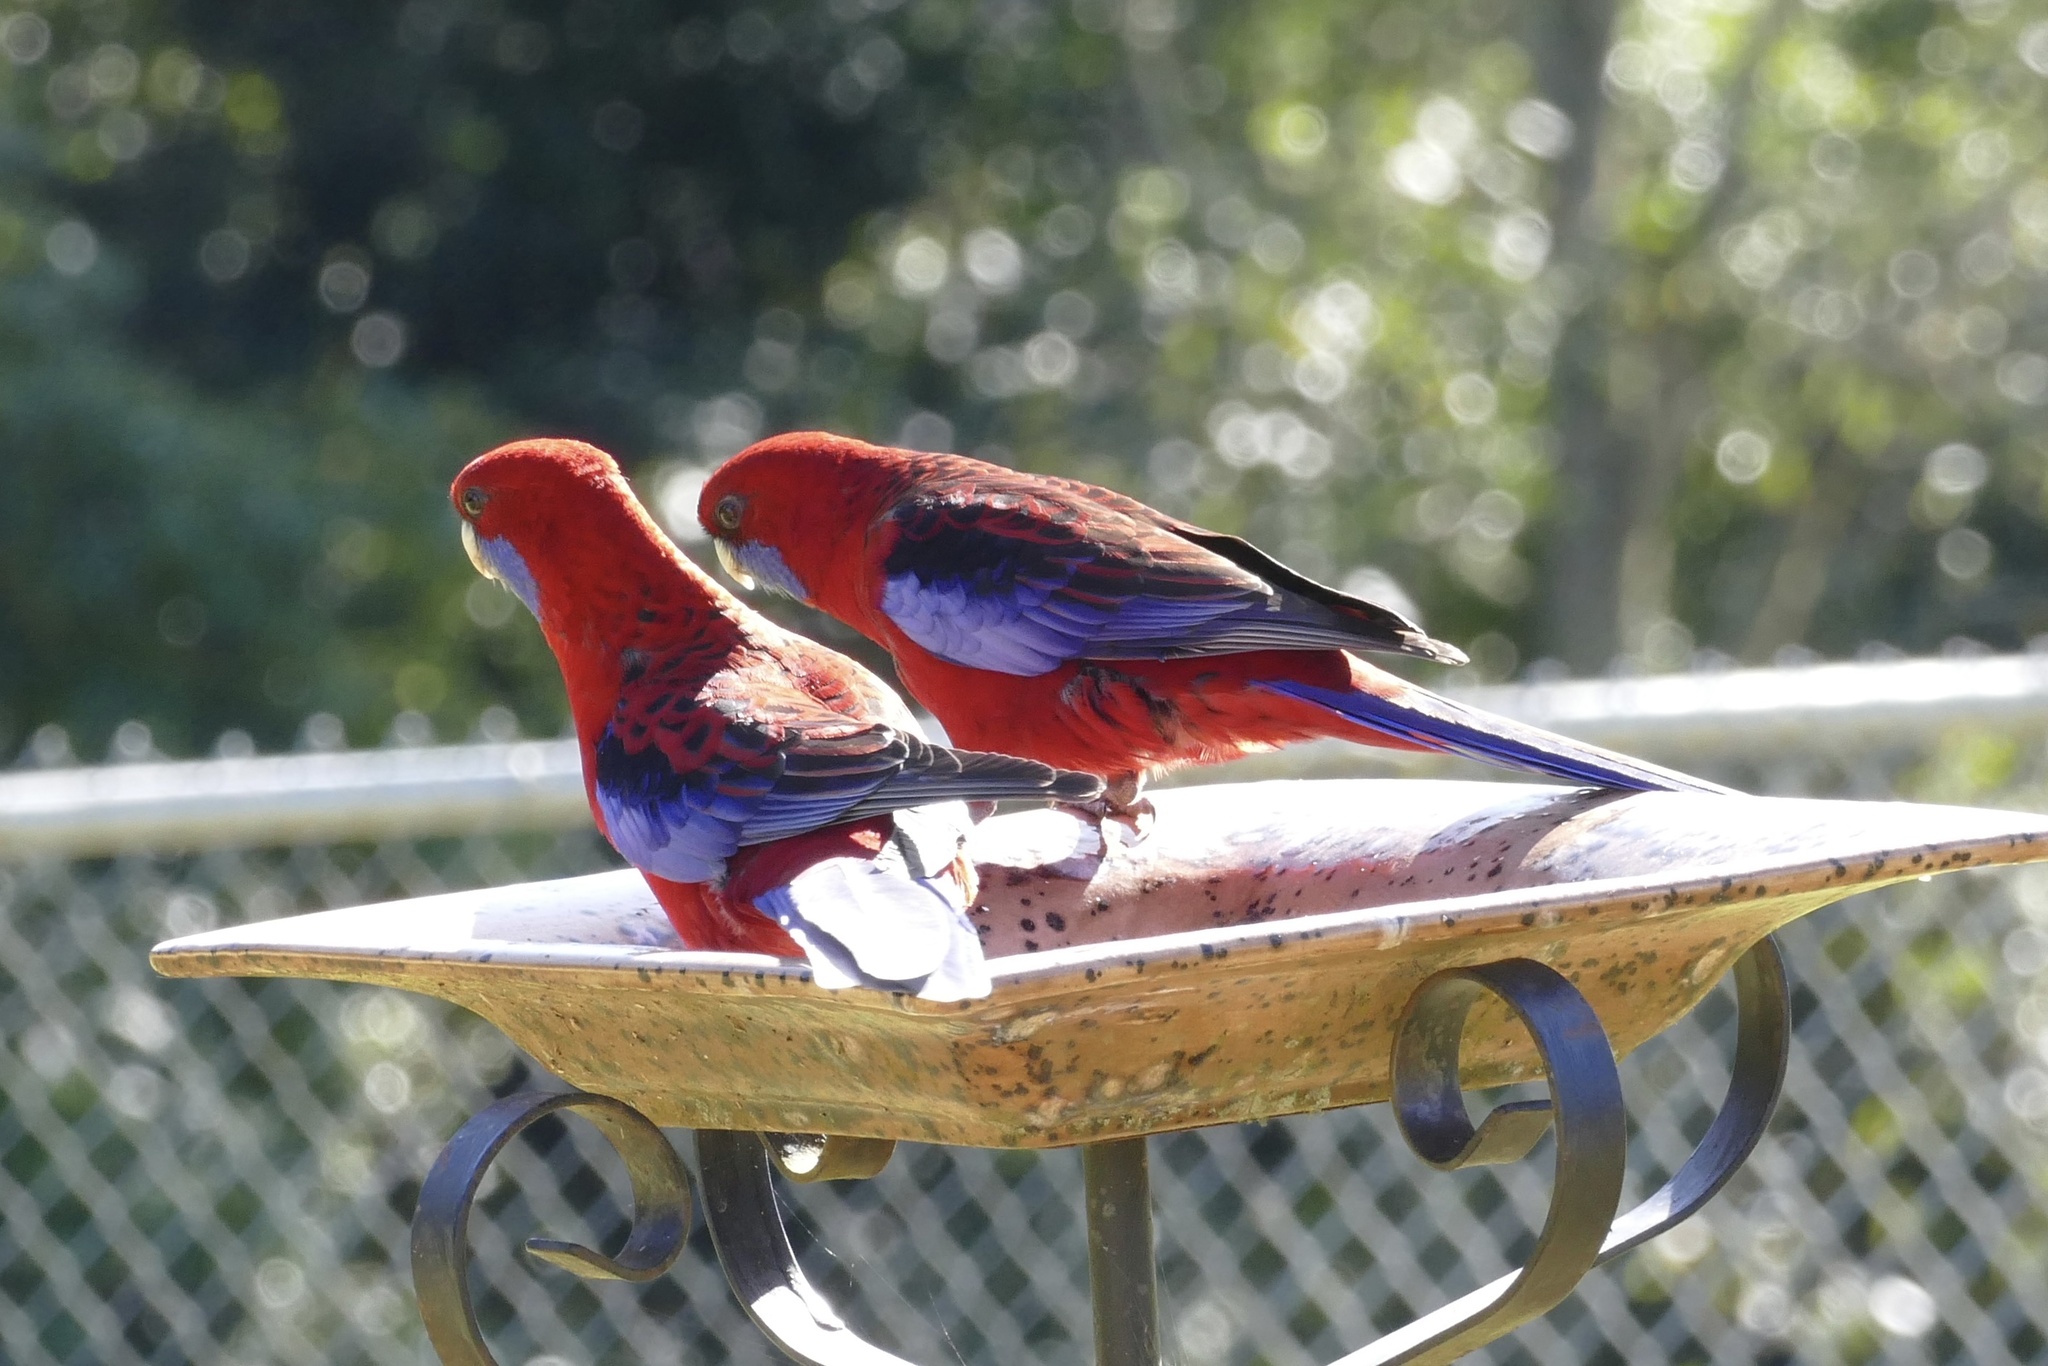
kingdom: Animalia
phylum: Chordata
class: Aves
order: Psittaciformes
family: Psittacidae
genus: Platycercus
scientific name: Platycercus elegans
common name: Crimson rosella
